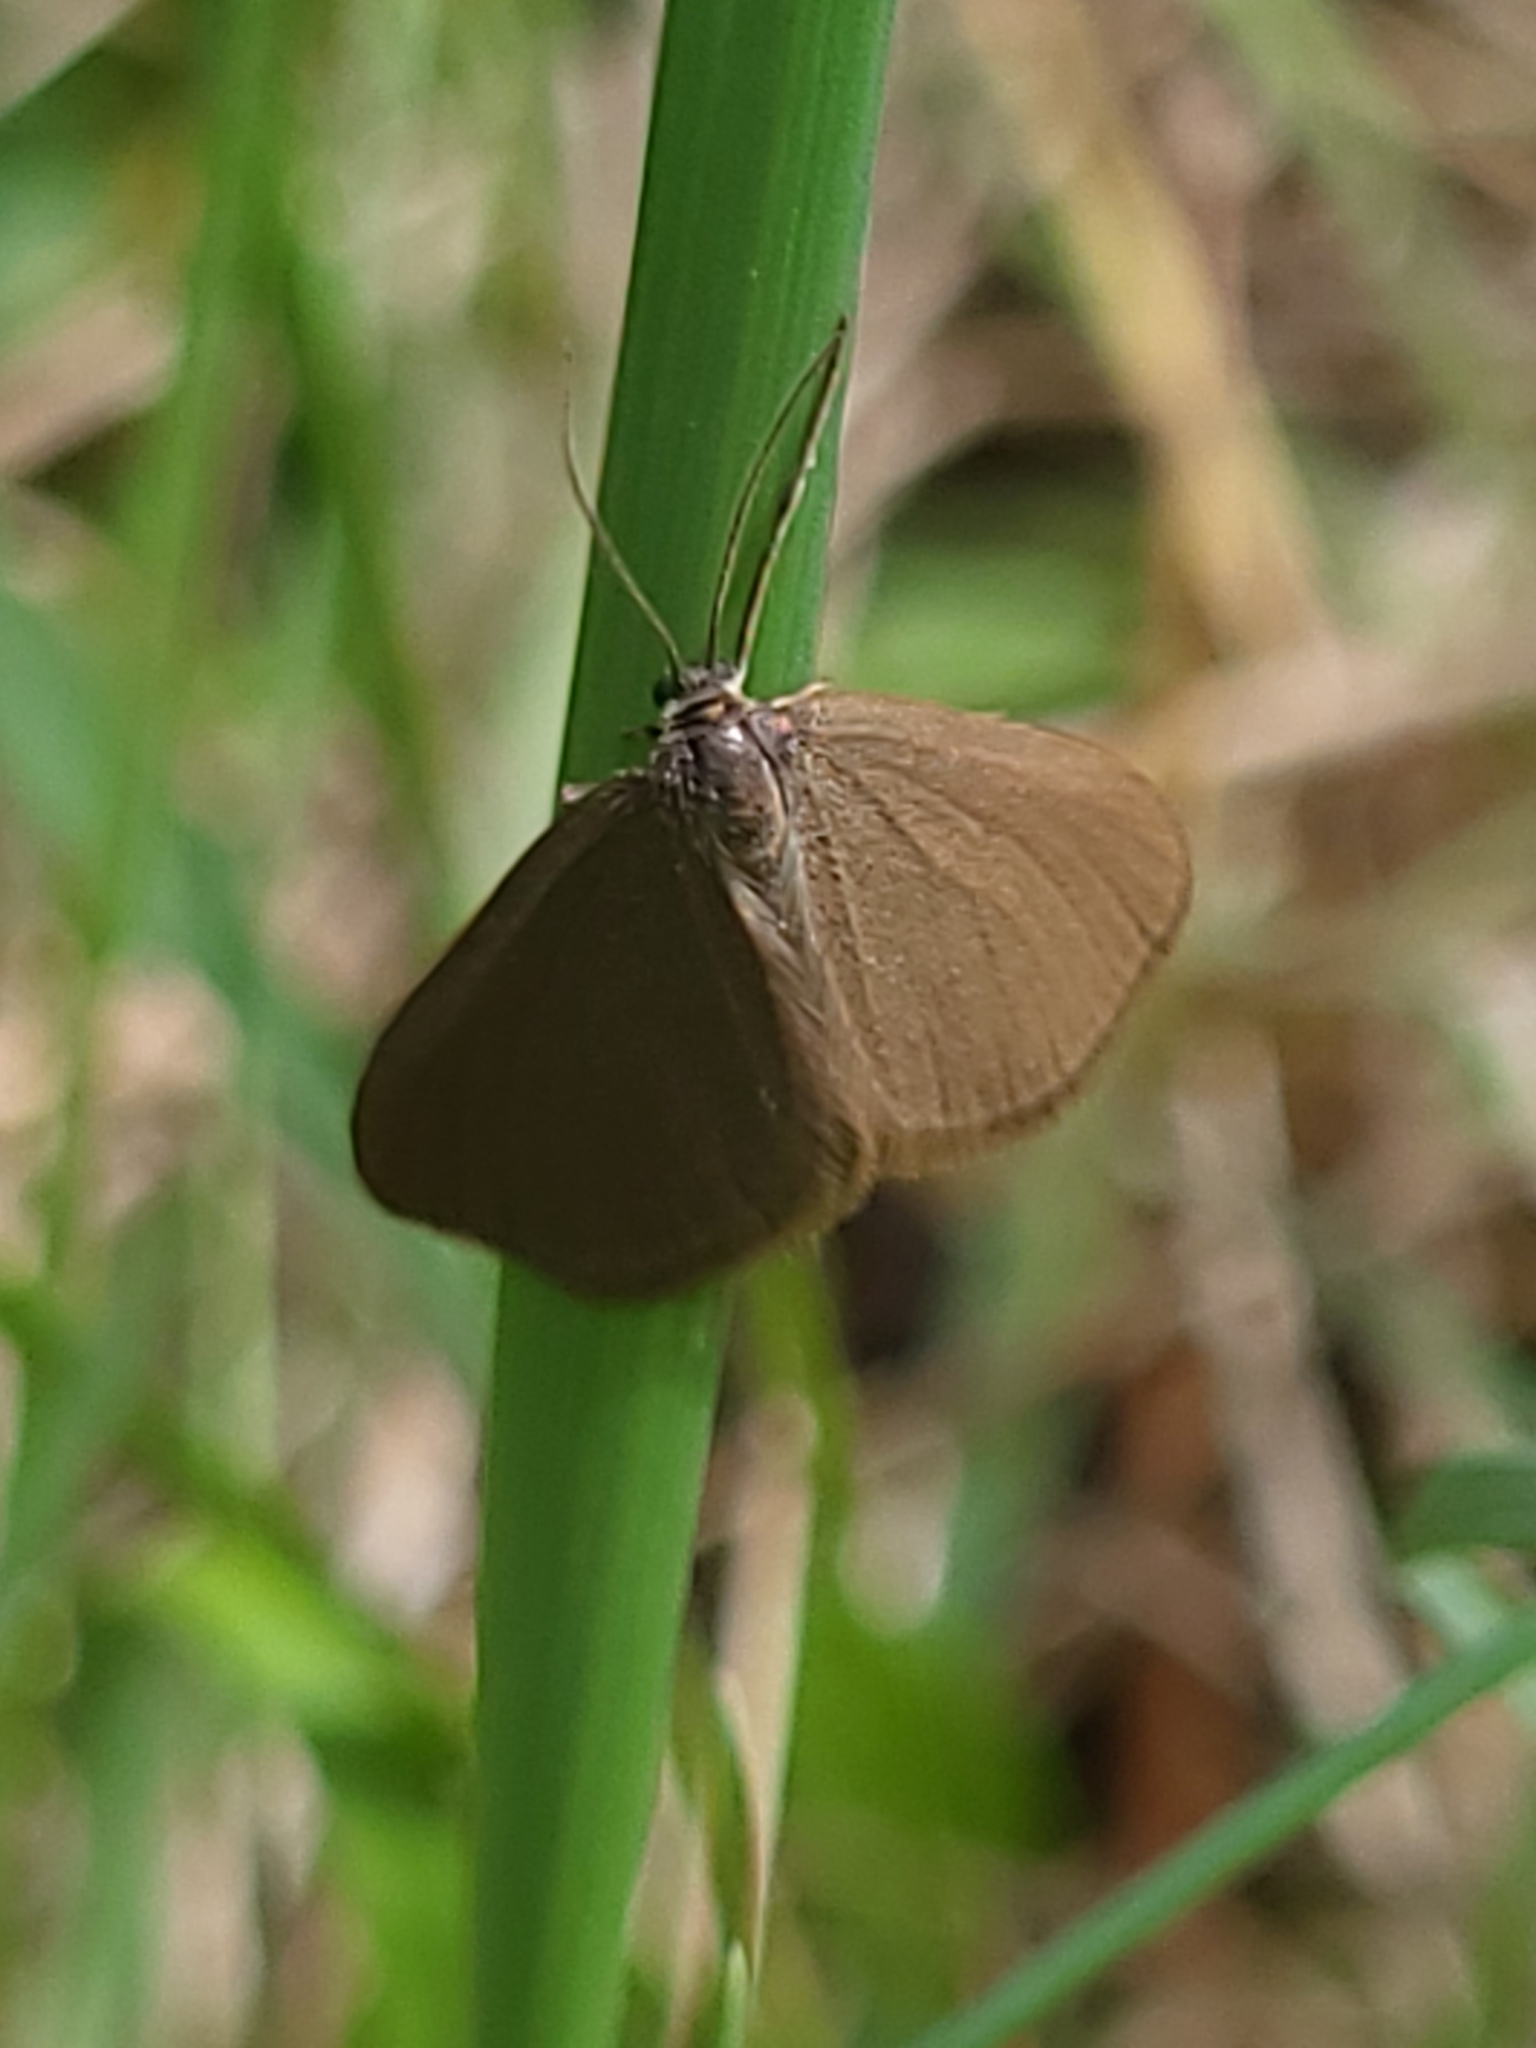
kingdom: Animalia
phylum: Arthropoda
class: Insecta
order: Lepidoptera
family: Geometridae
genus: Minoa
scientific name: Minoa murinata
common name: Drab looper
